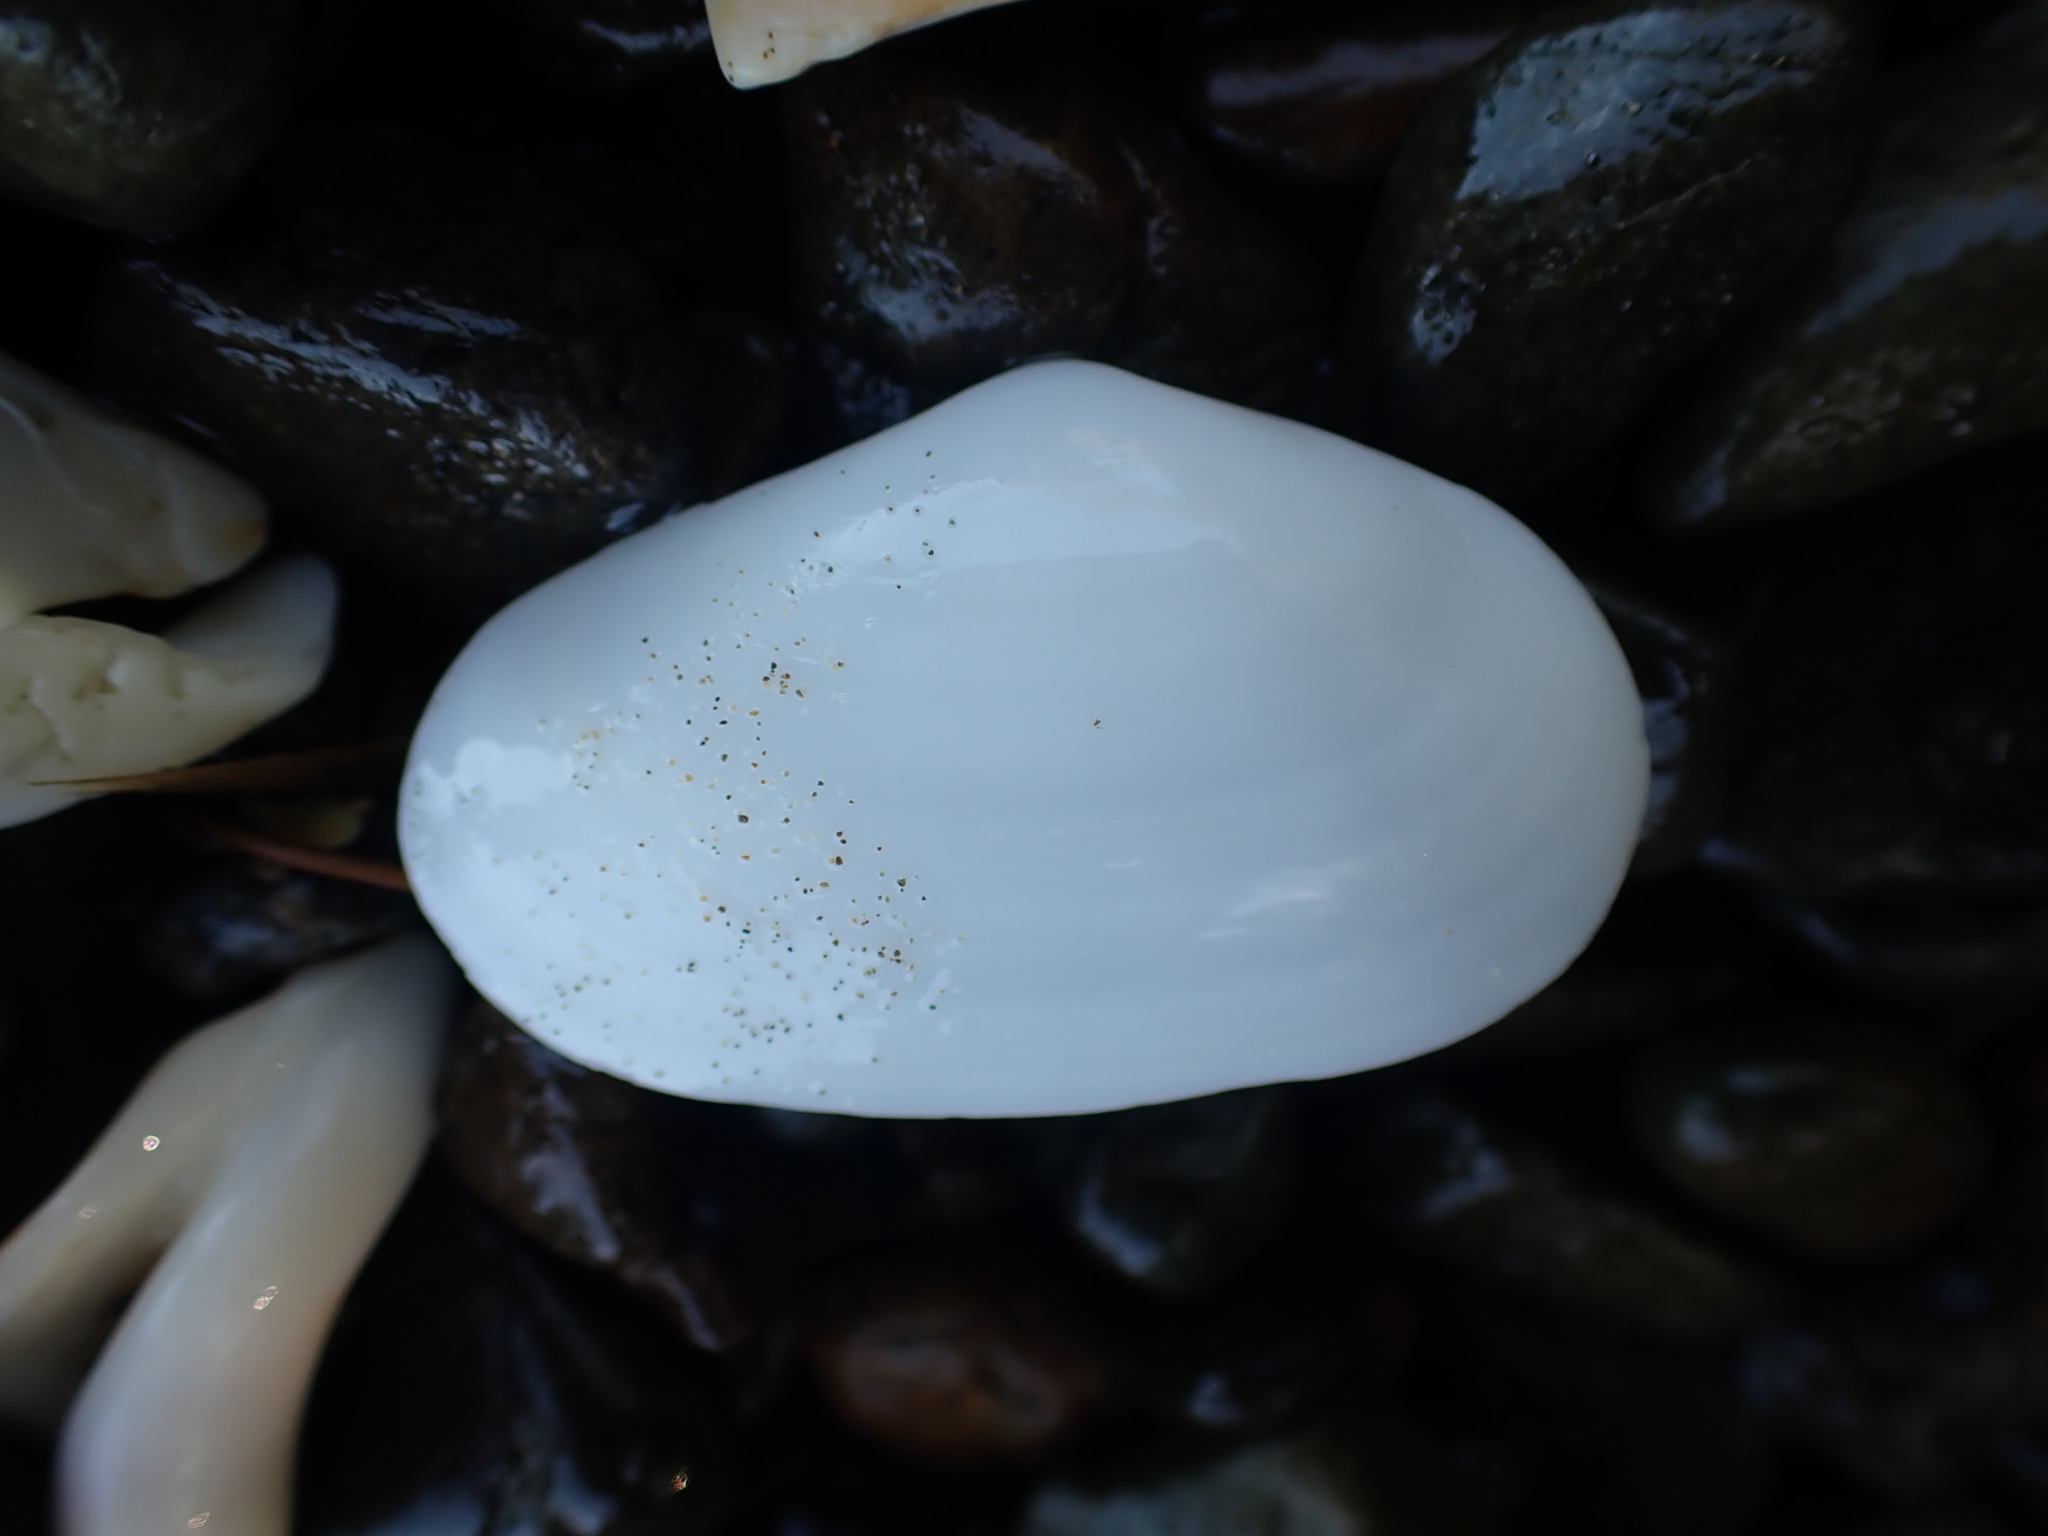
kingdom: Animalia
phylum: Mollusca
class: Bivalvia
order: Venerida
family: Mesodesmatidae
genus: Paphies
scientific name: Paphies australis
